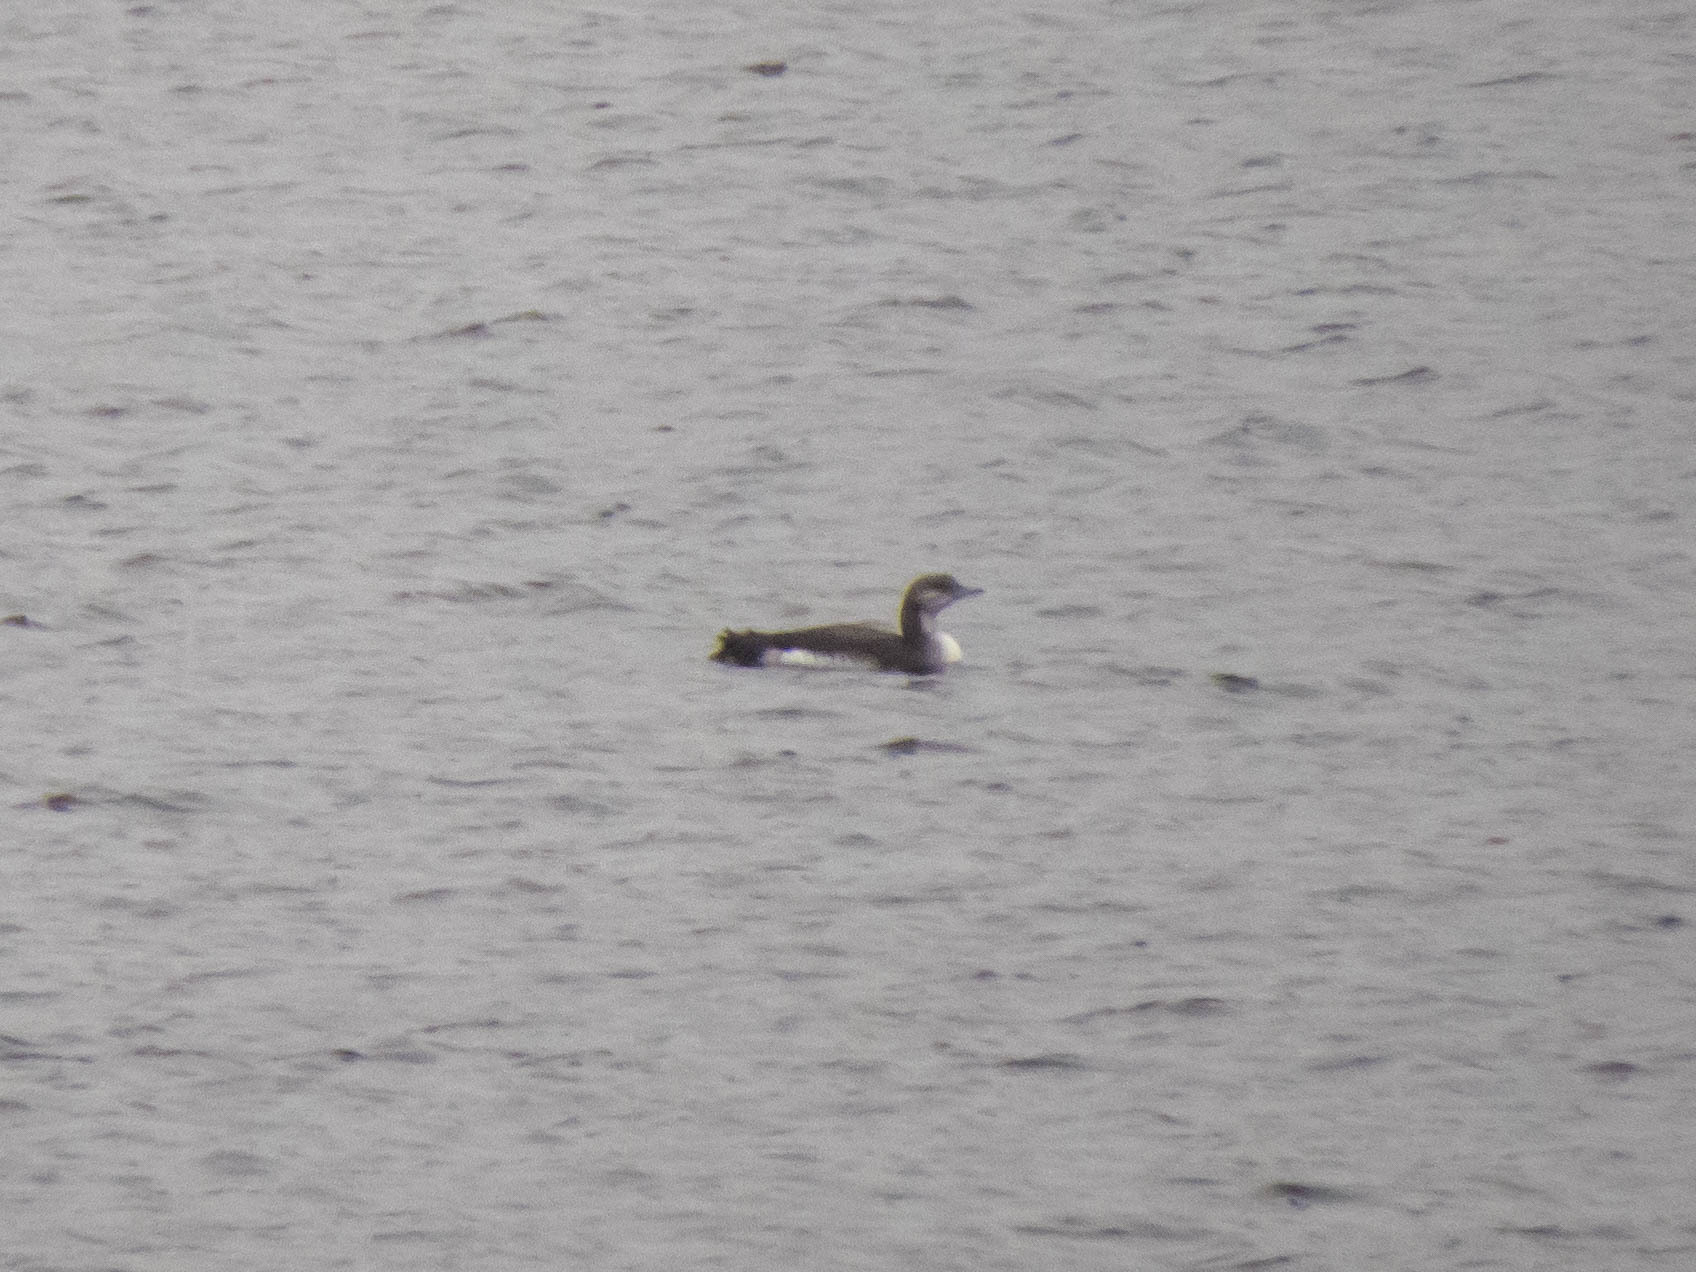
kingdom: Animalia
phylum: Chordata
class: Aves
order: Gaviiformes
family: Gaviidae
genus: Gavia
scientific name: Gavia arctica
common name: Black-throated loon
